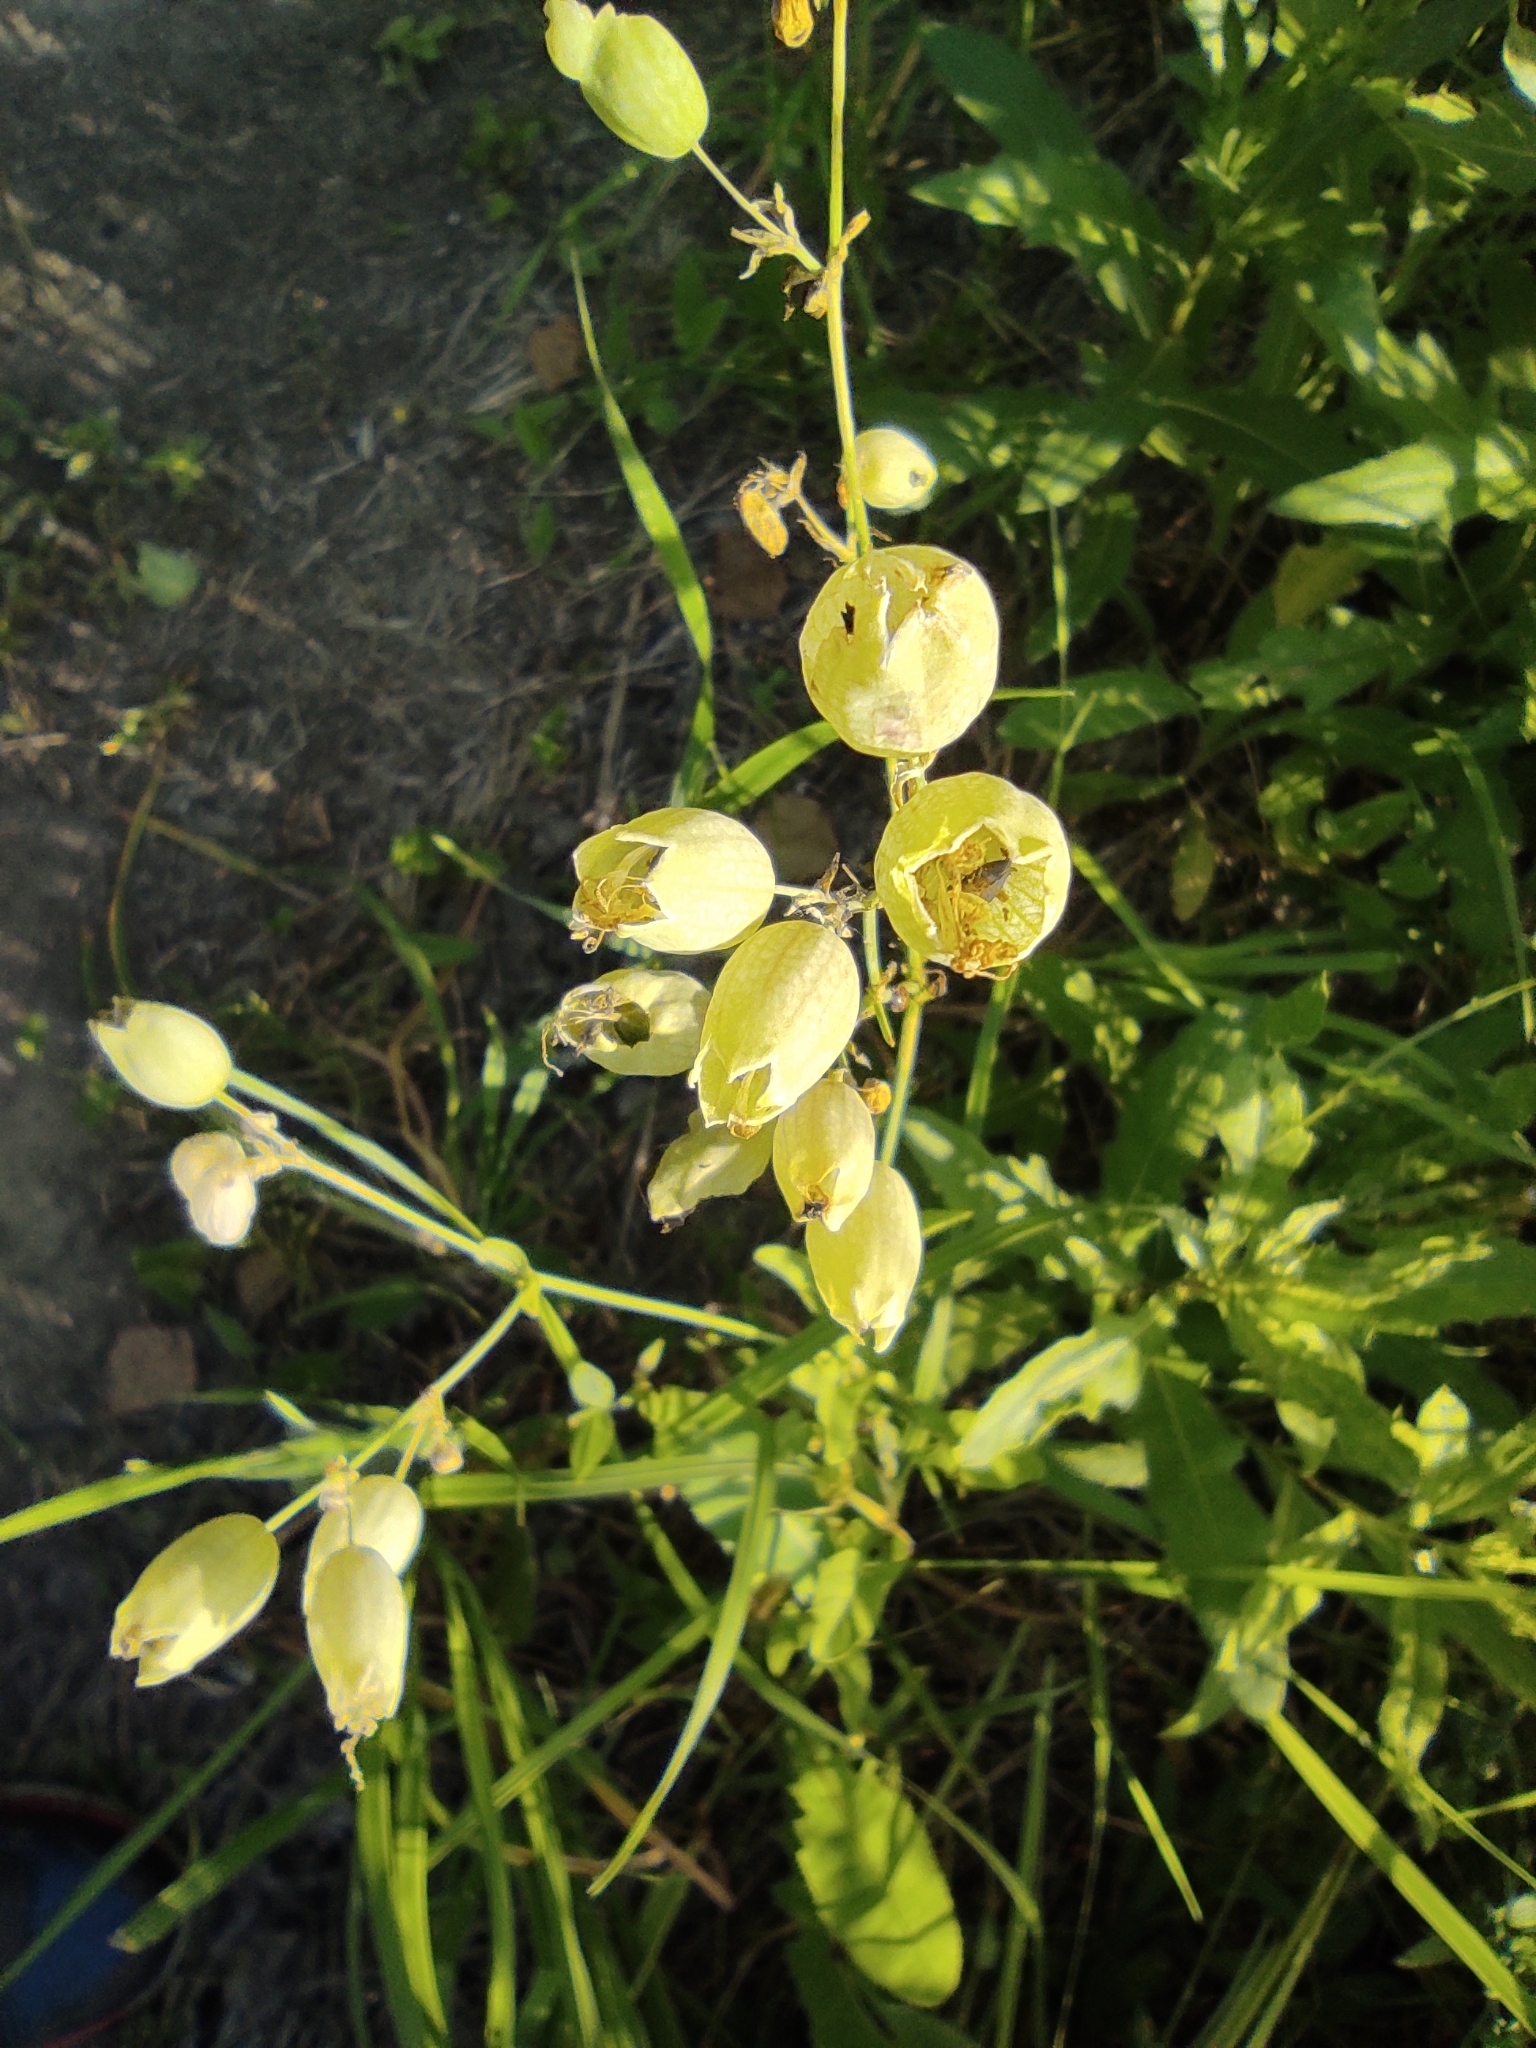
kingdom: Plantae
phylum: Tracheophyta
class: Magnoliopsida
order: Caryophyllales
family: Caryophyllaceae
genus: Silene
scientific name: Silene vulgaris
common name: Bladder campion
